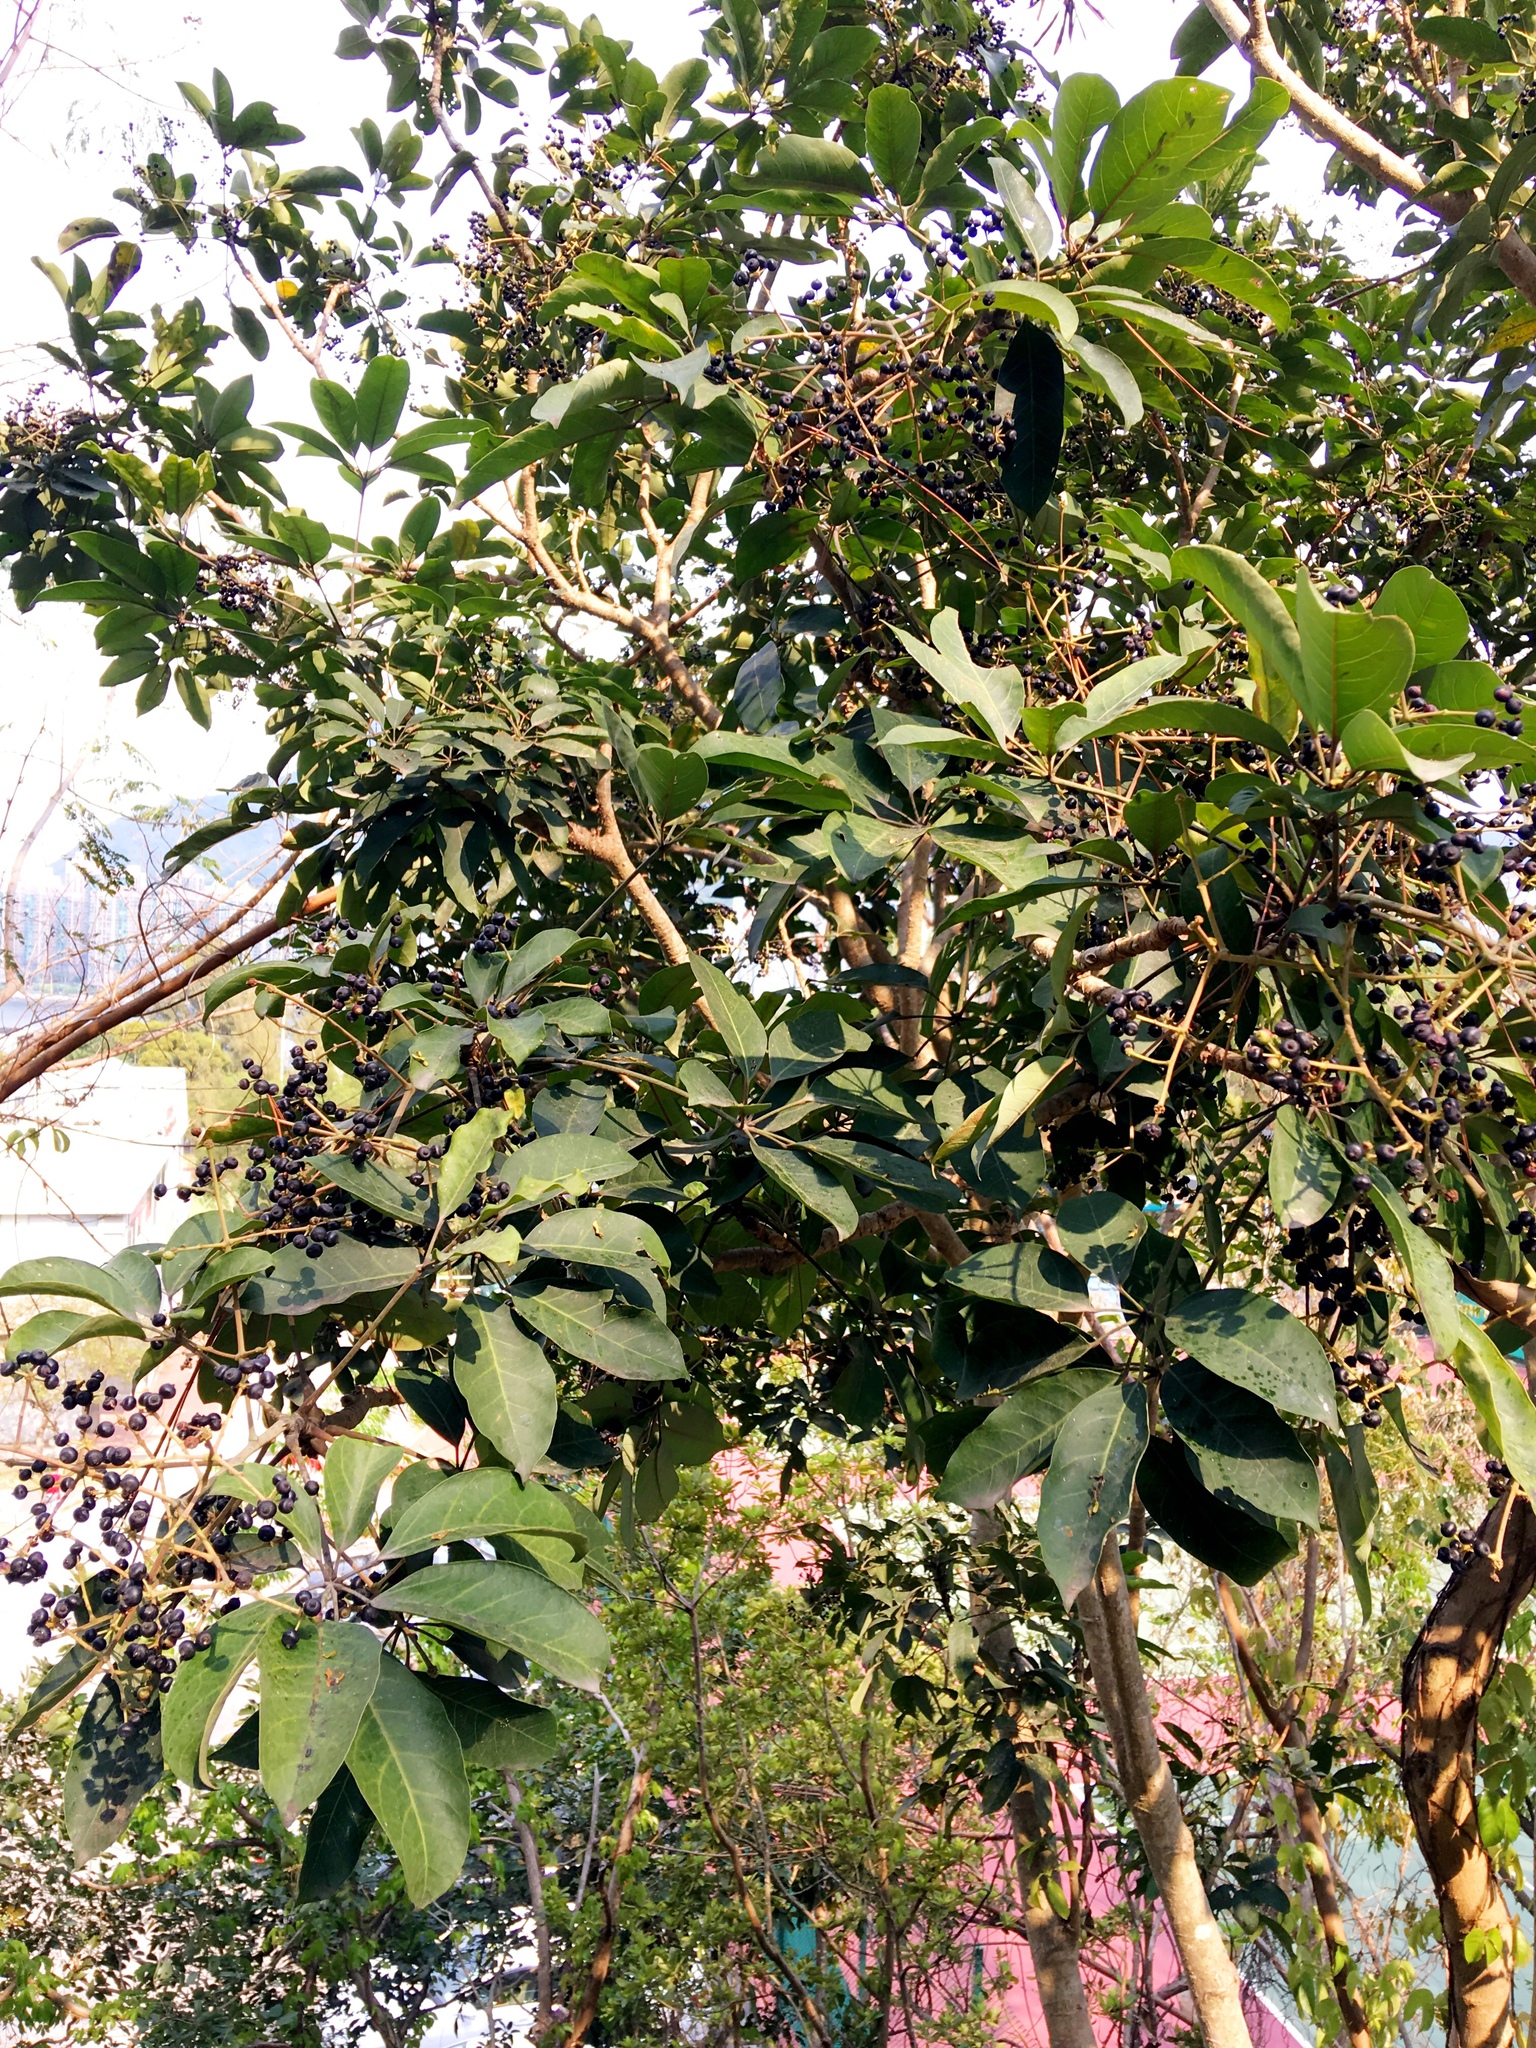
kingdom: Plantae
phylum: Tracheophyta
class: Magnoliopsida
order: Apiales
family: Araliaceae
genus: Heptapleurum
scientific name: Heptapleurum heptaphyllum
